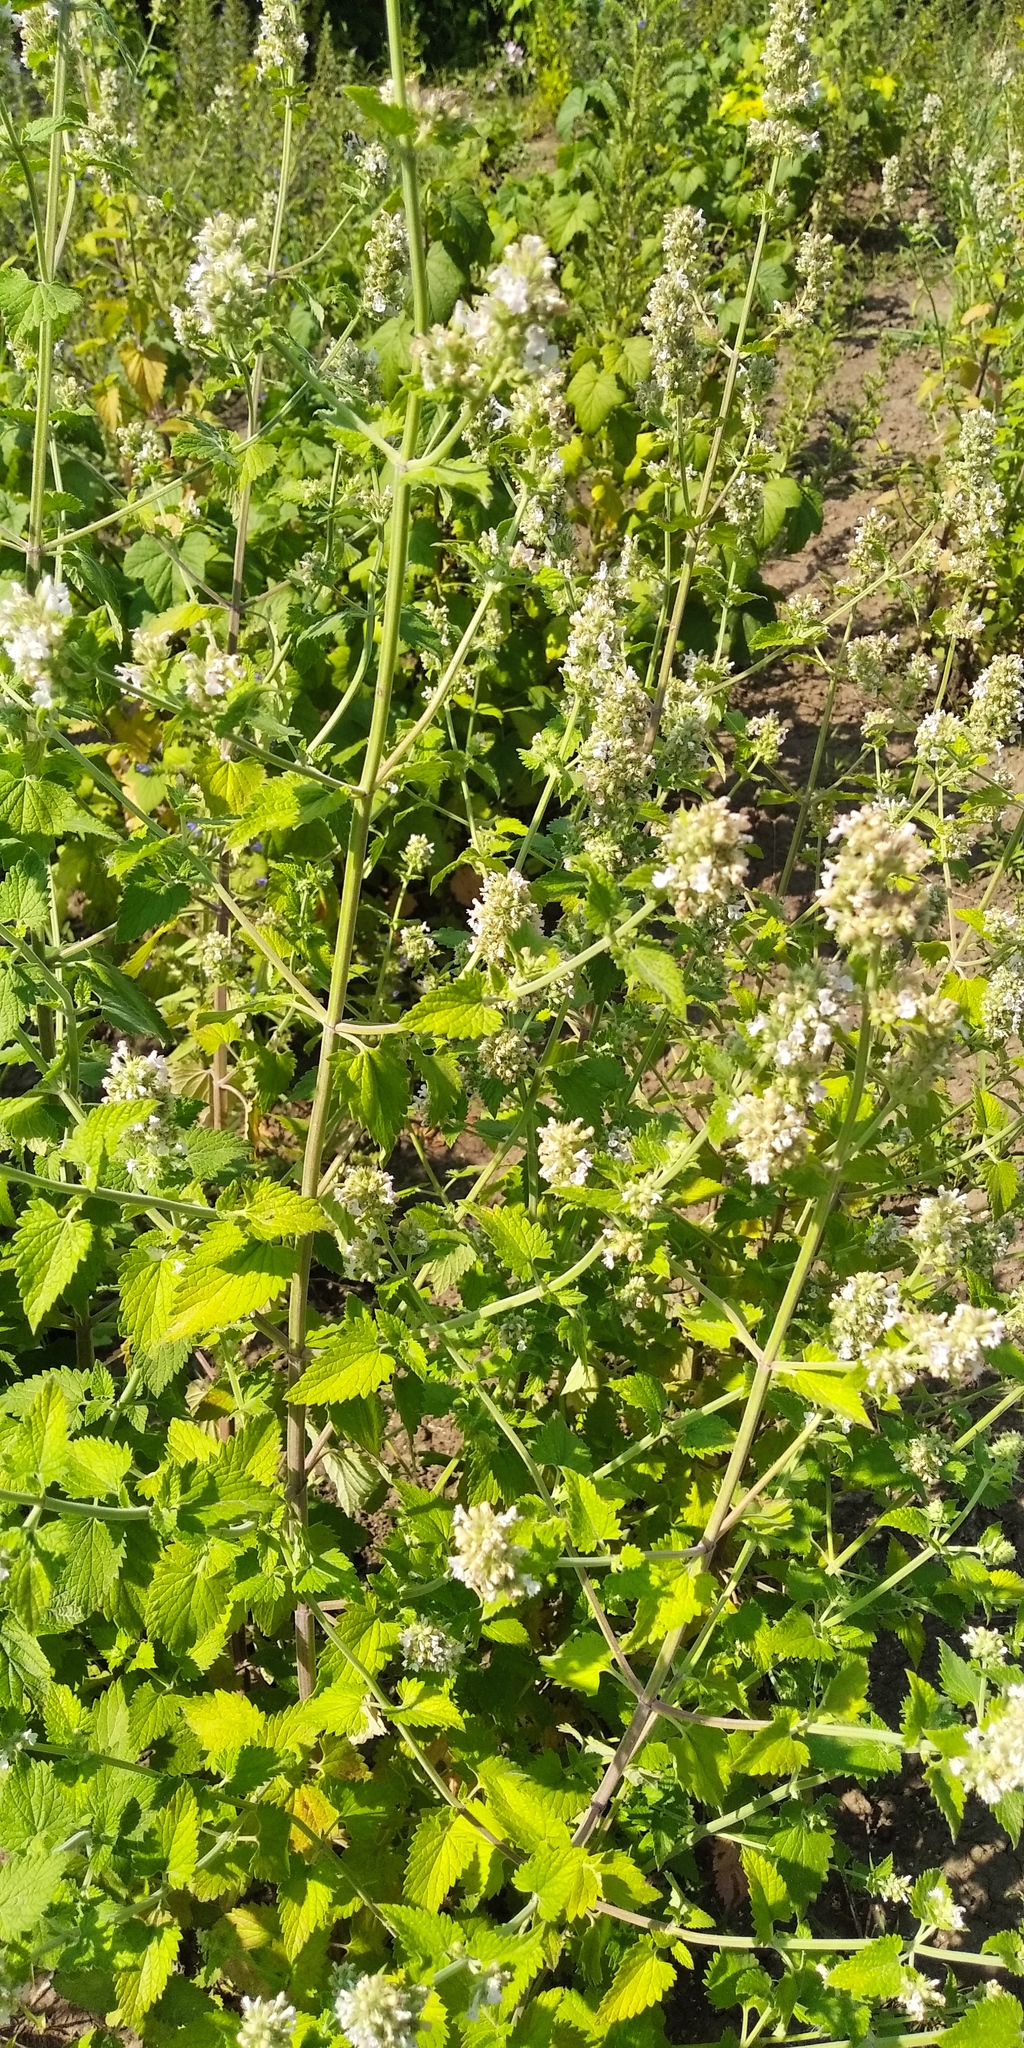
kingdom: Plantae
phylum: Tracheophyta
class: Magnoliopsida
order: Lamiales
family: Lamiaceae
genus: Nepeta
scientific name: Nepeta cataria
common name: Catnip
